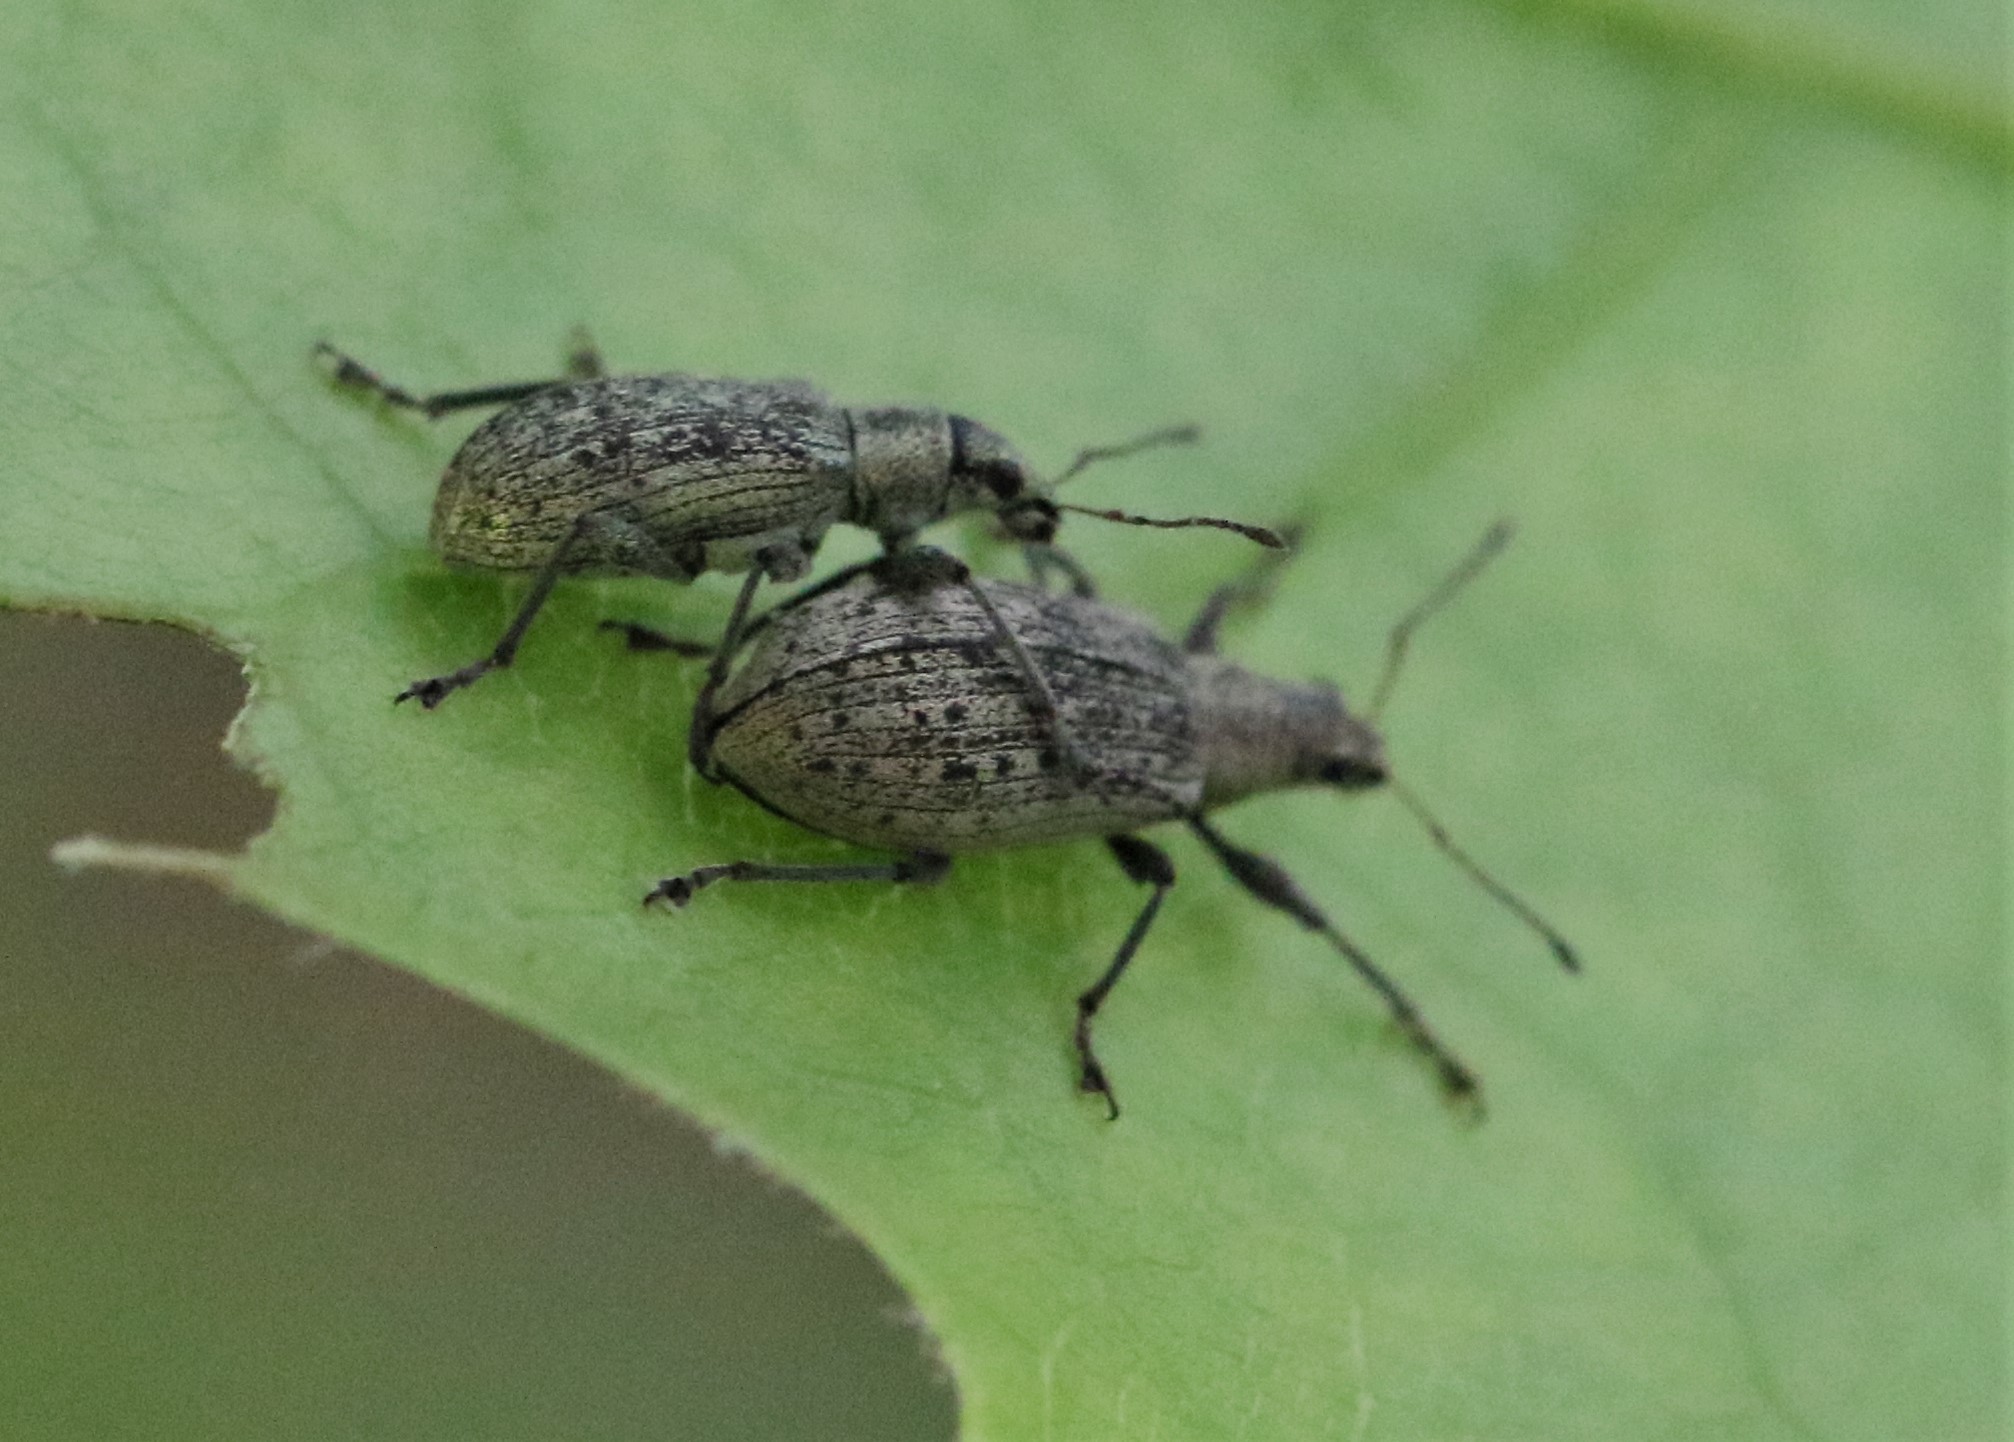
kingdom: Animalia
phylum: Arthropoda
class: Insecta
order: Coleoptera
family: Curculionidae
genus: Polydrusus
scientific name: Polydrusus cervinus
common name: Weevil
